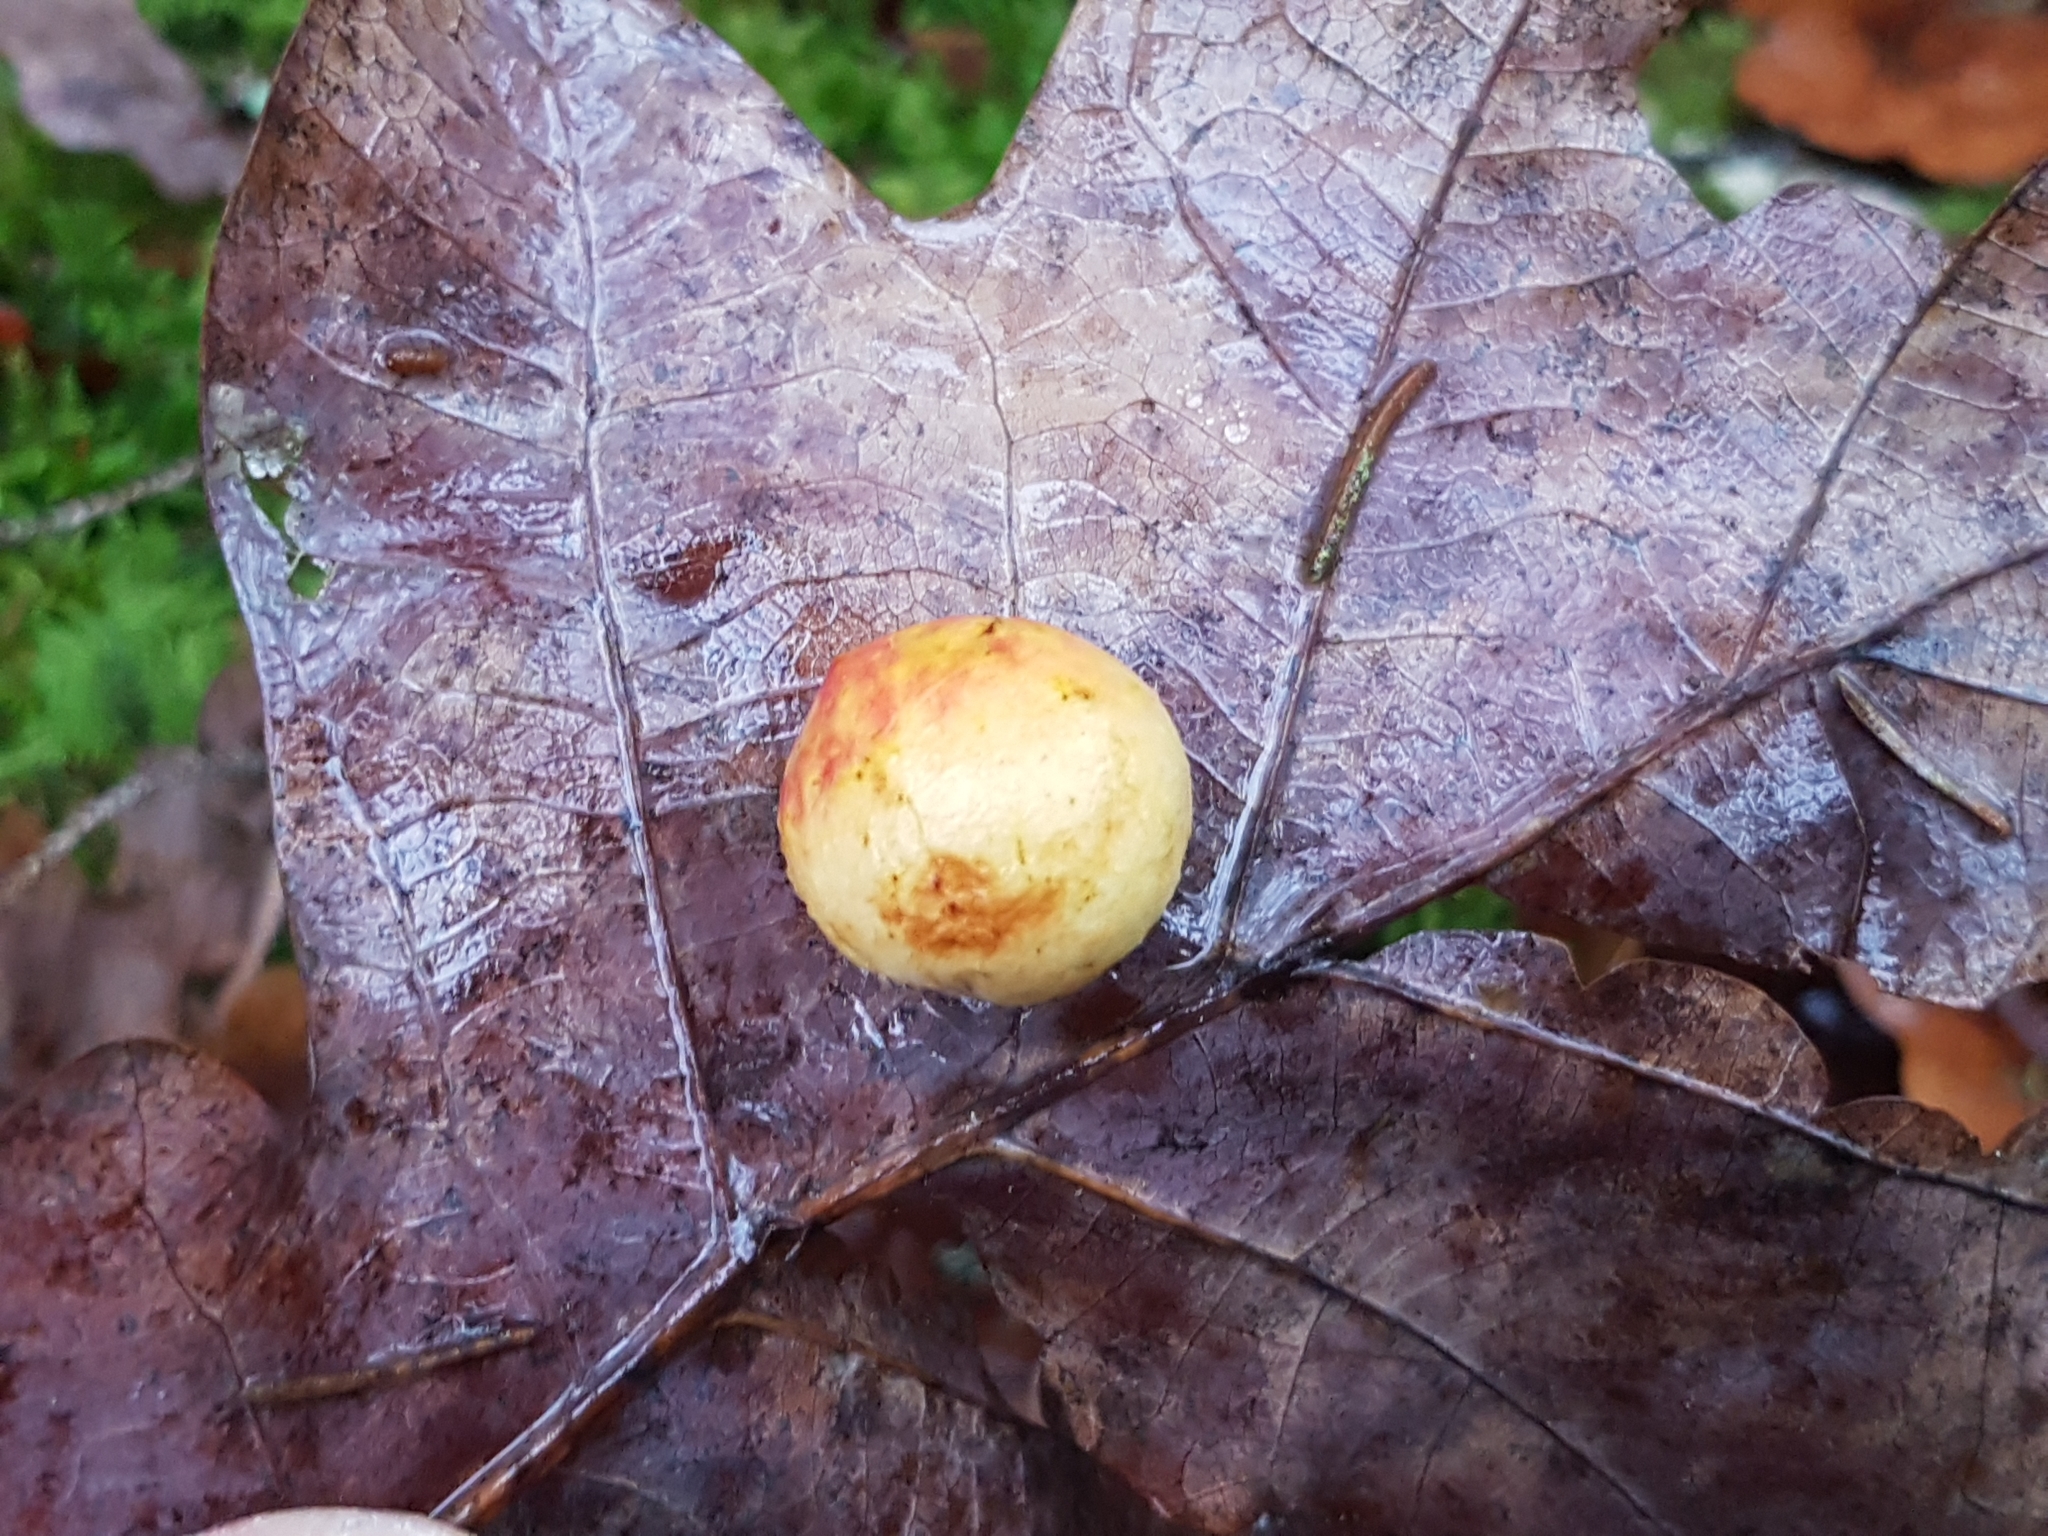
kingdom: Animalia
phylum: Arthropoda
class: Insecta
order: Hymenoptera
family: Cynipidae
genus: Cynips
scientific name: Cynips quercusfolii
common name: Cherry gall
